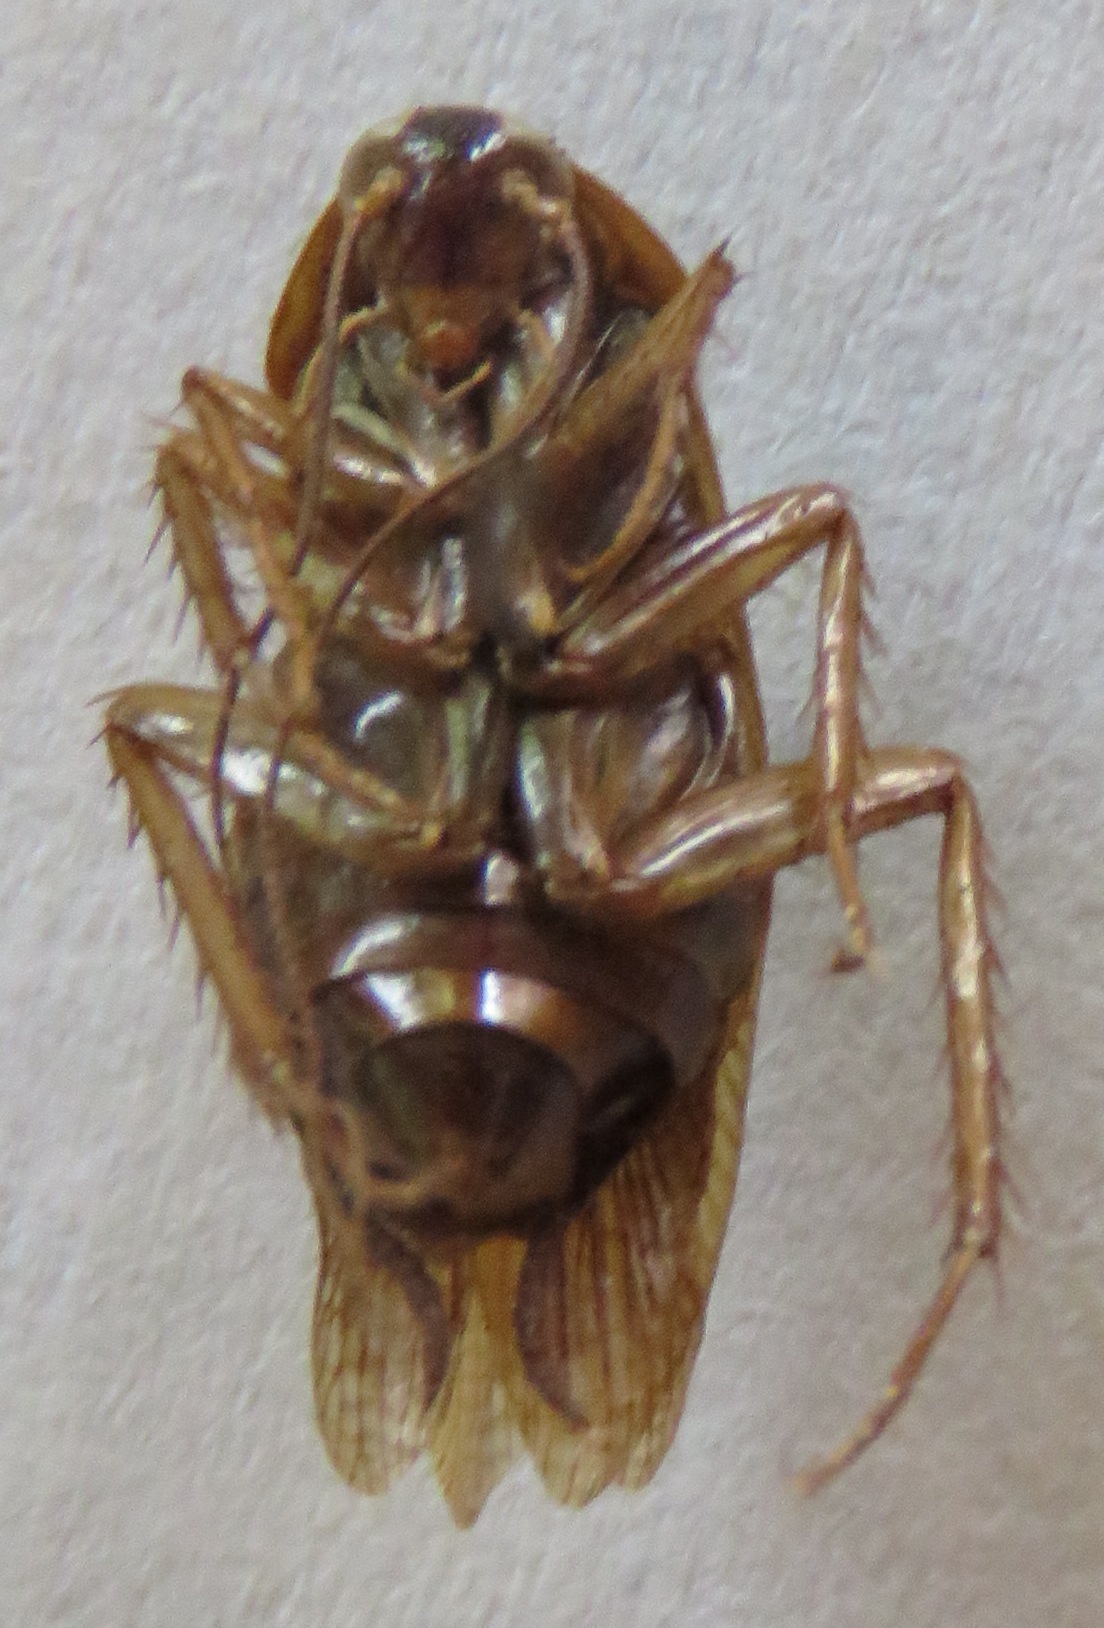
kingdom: Animalia
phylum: Arthropoda
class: Insecta
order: Blattodea
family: Ectobiidae
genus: Blattella
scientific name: Blattella germanica
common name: German cockroach
